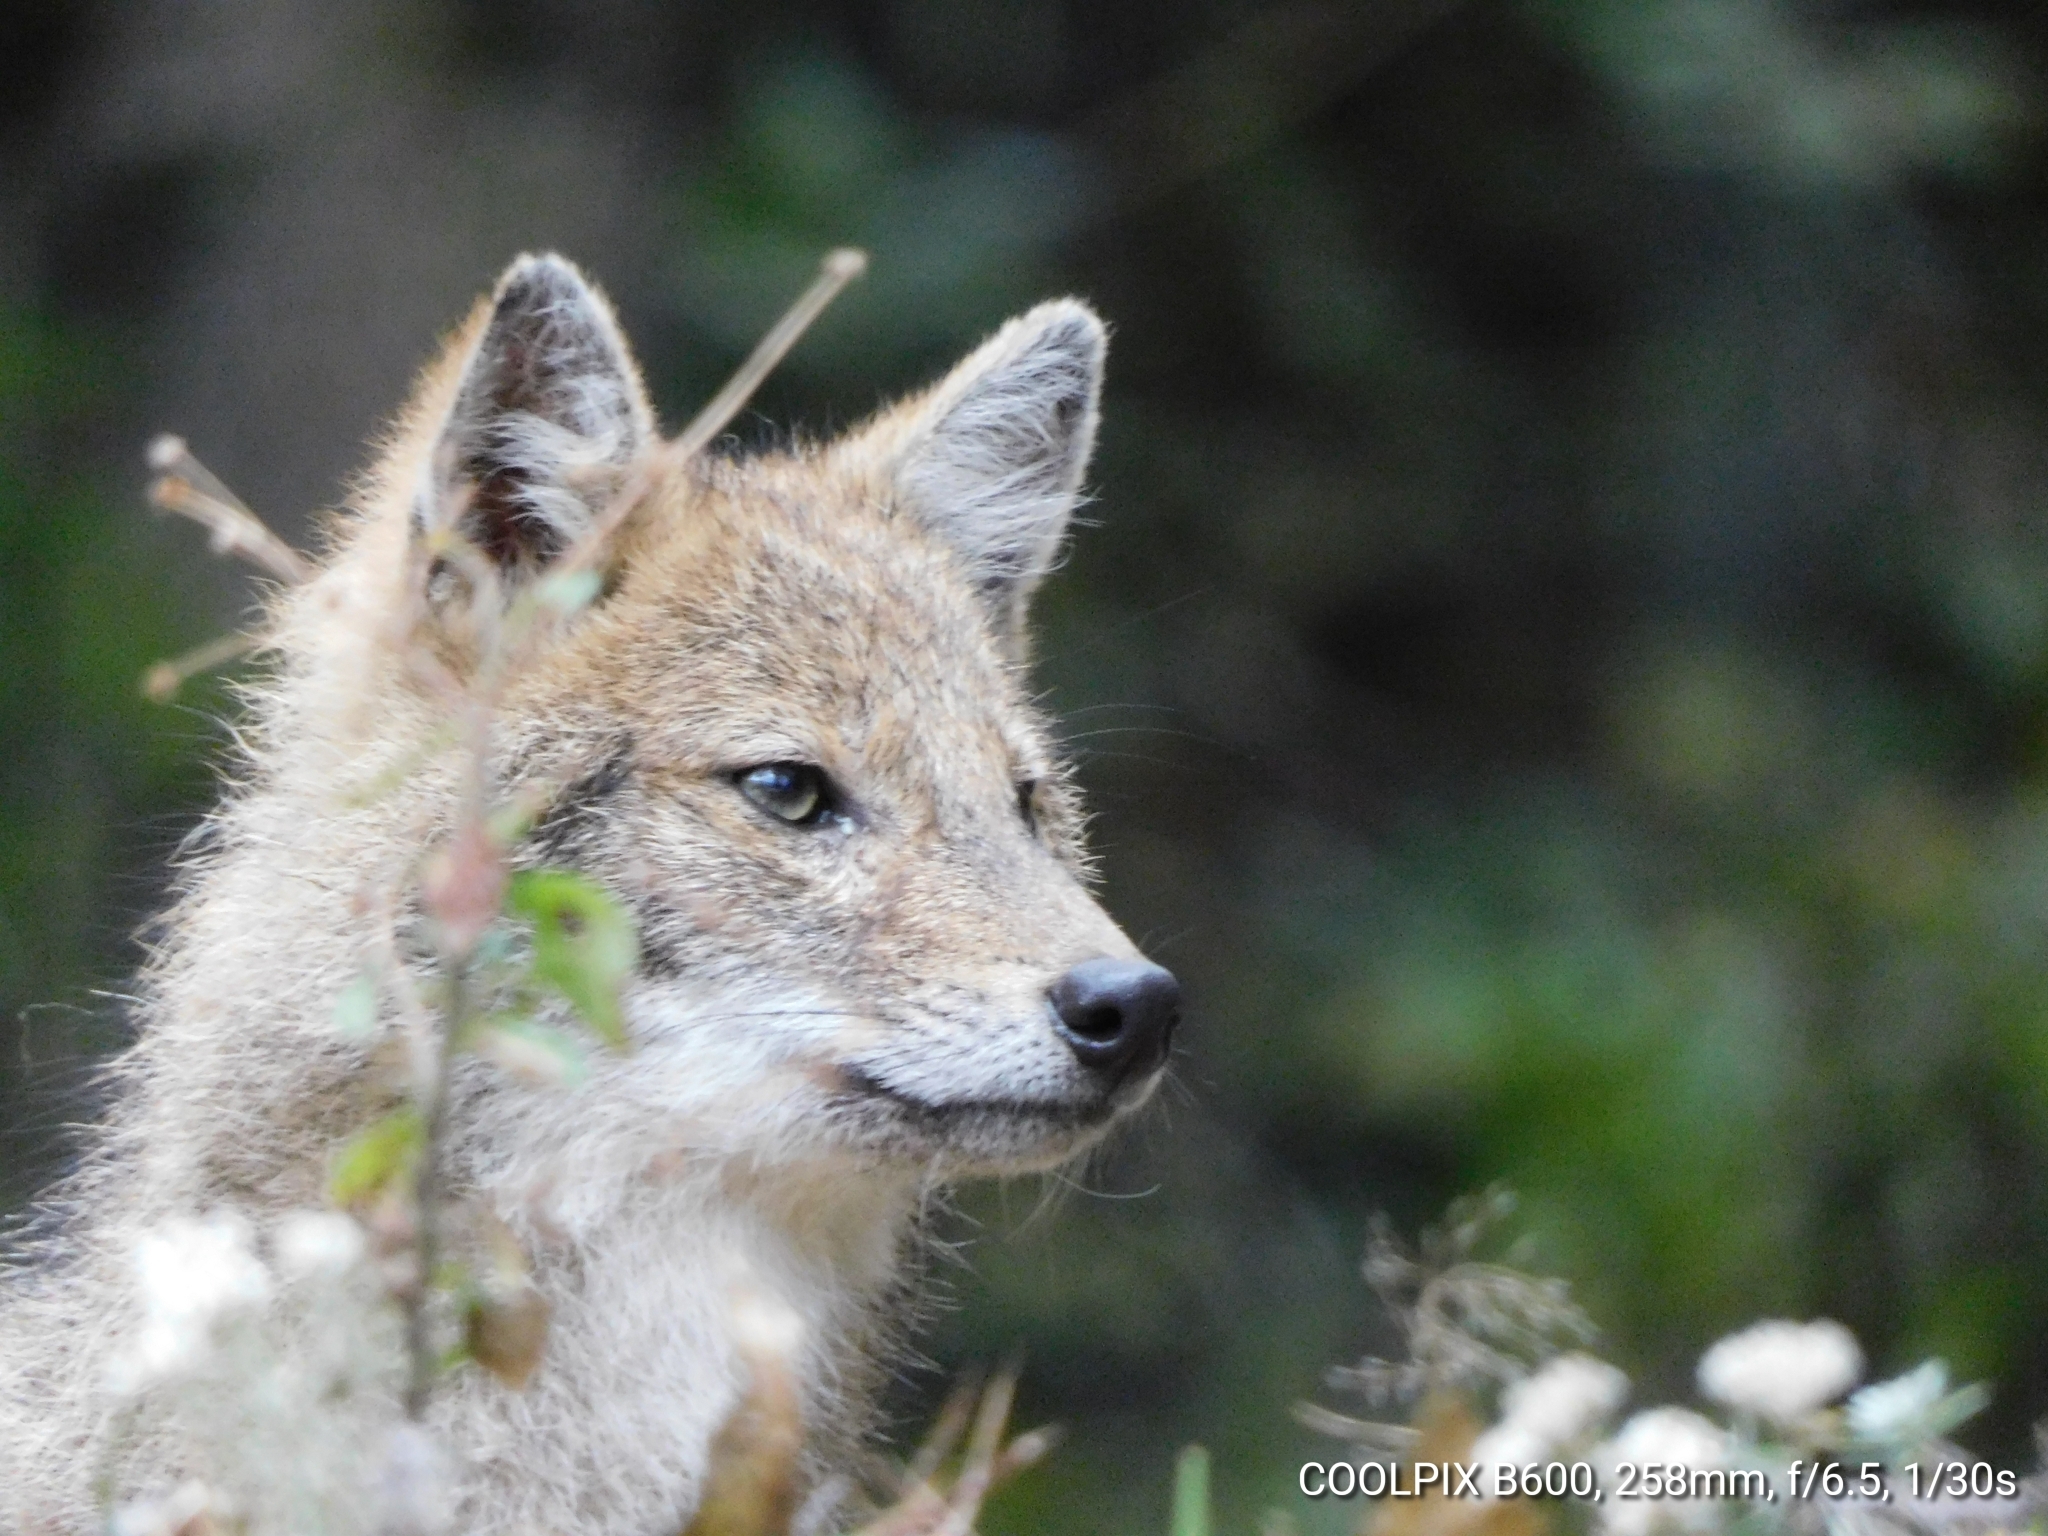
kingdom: Animalia
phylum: Chordata
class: Mammalia
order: Carnivora
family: Canidae
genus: Canis
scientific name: Canis aureus
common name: Golden jackal
